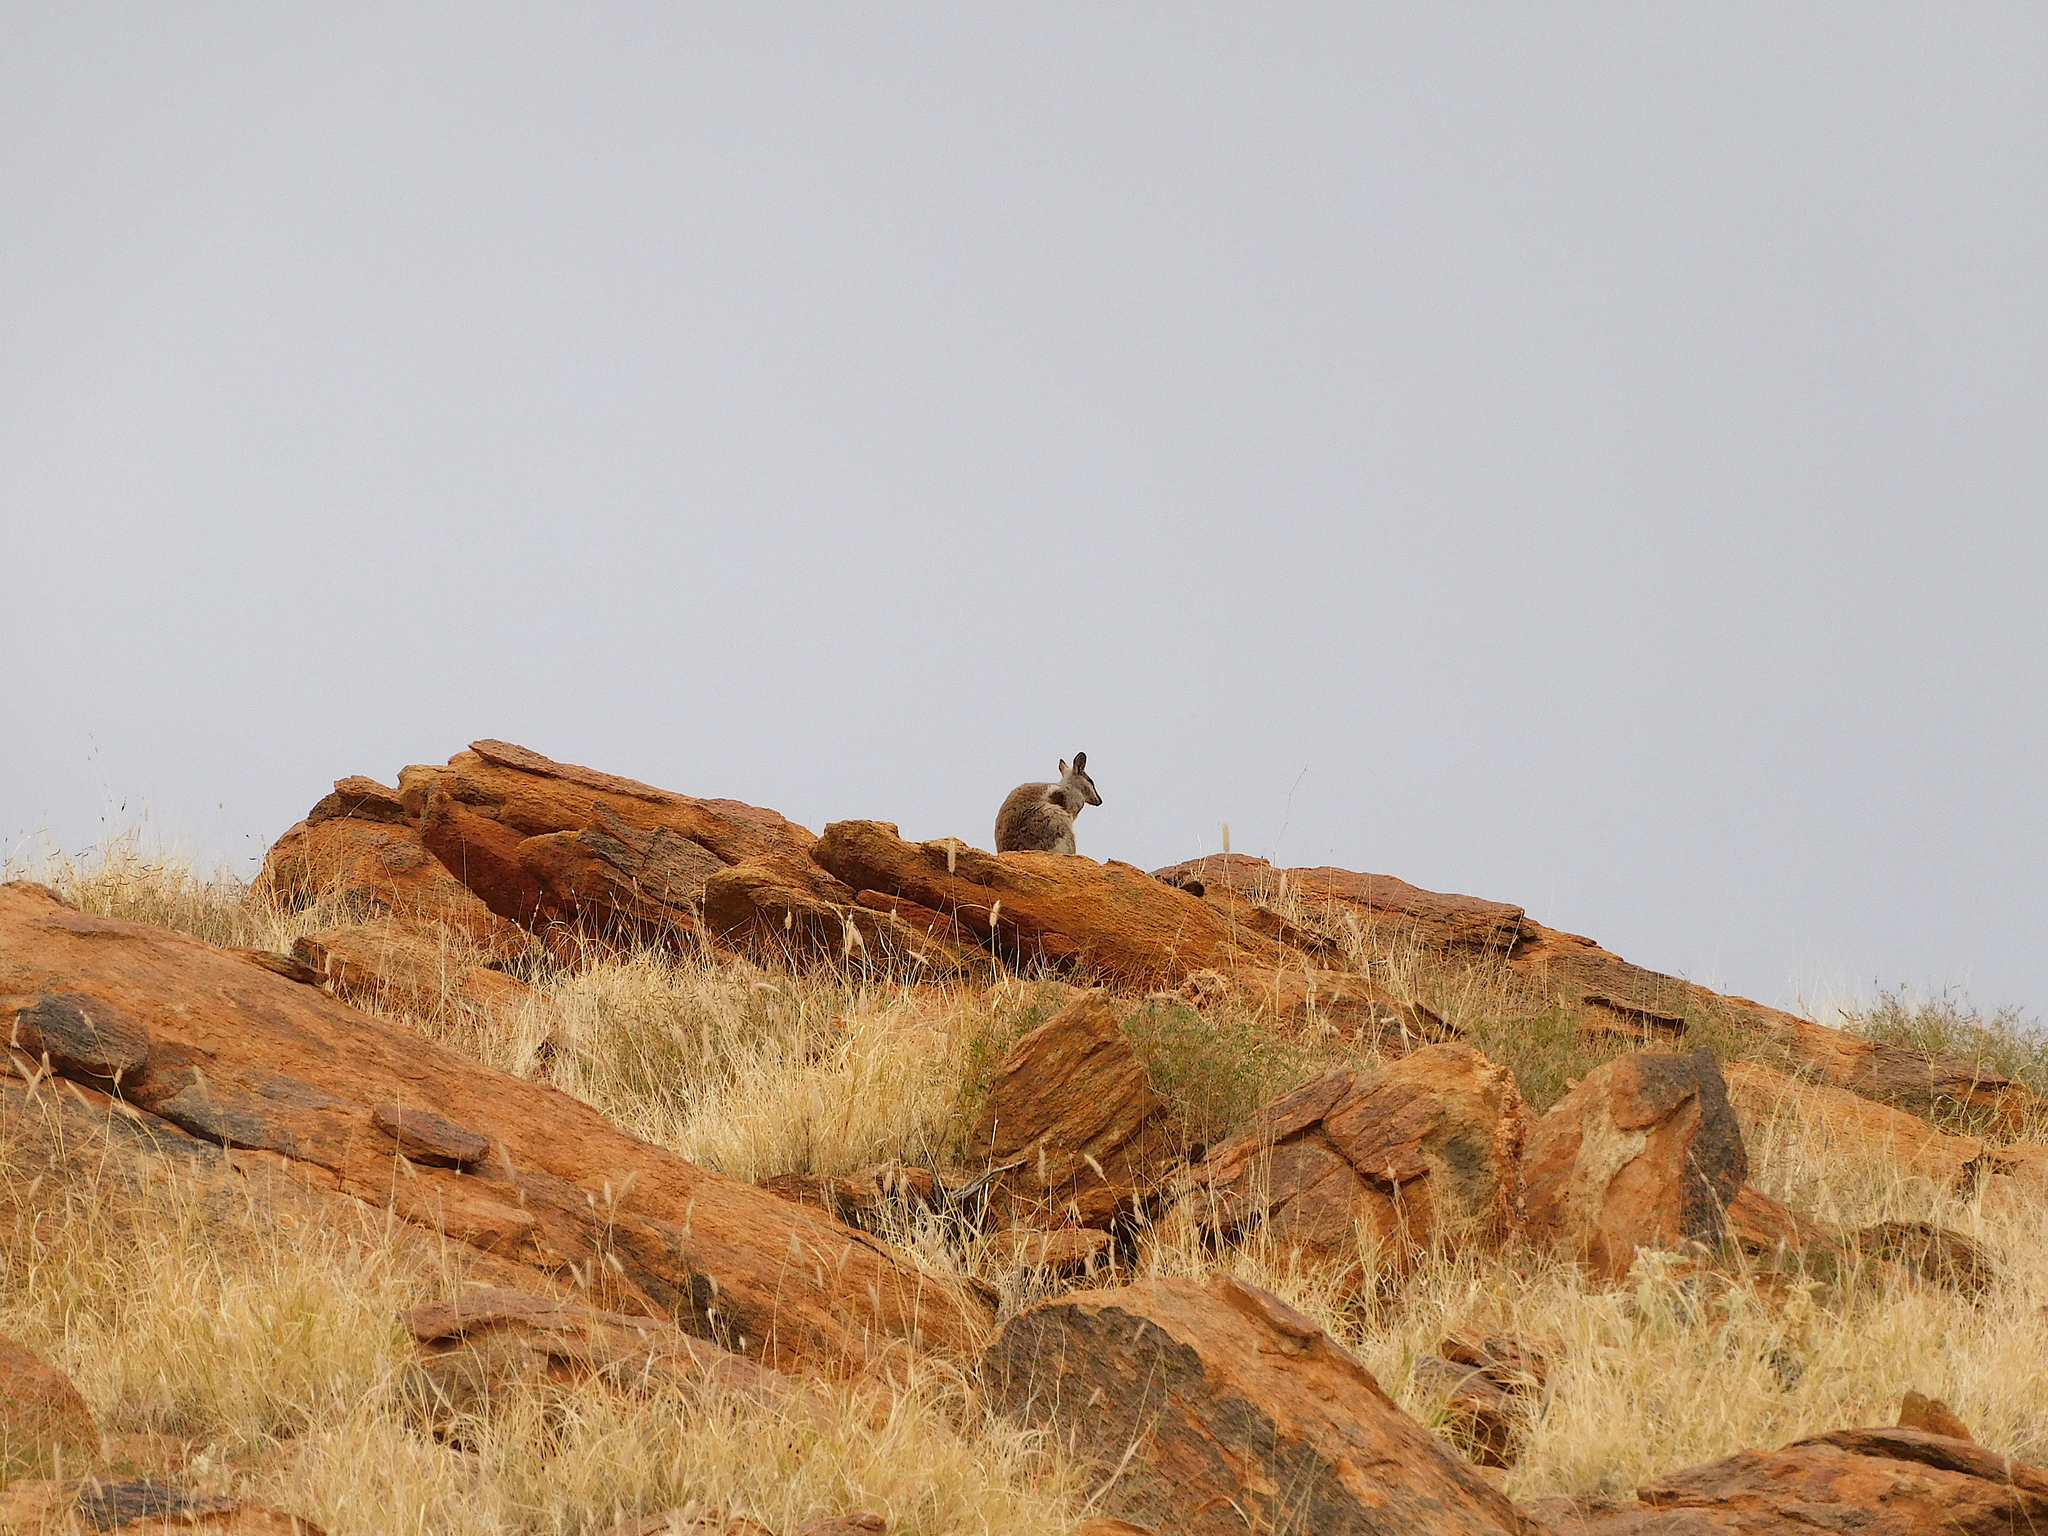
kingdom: Animalia
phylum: Chordata
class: Mammalia
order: Diprotodontia
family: Macropodidae
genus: Petrogale
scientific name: Petrogale lateralis
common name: Black-flanked rock-wallaby
